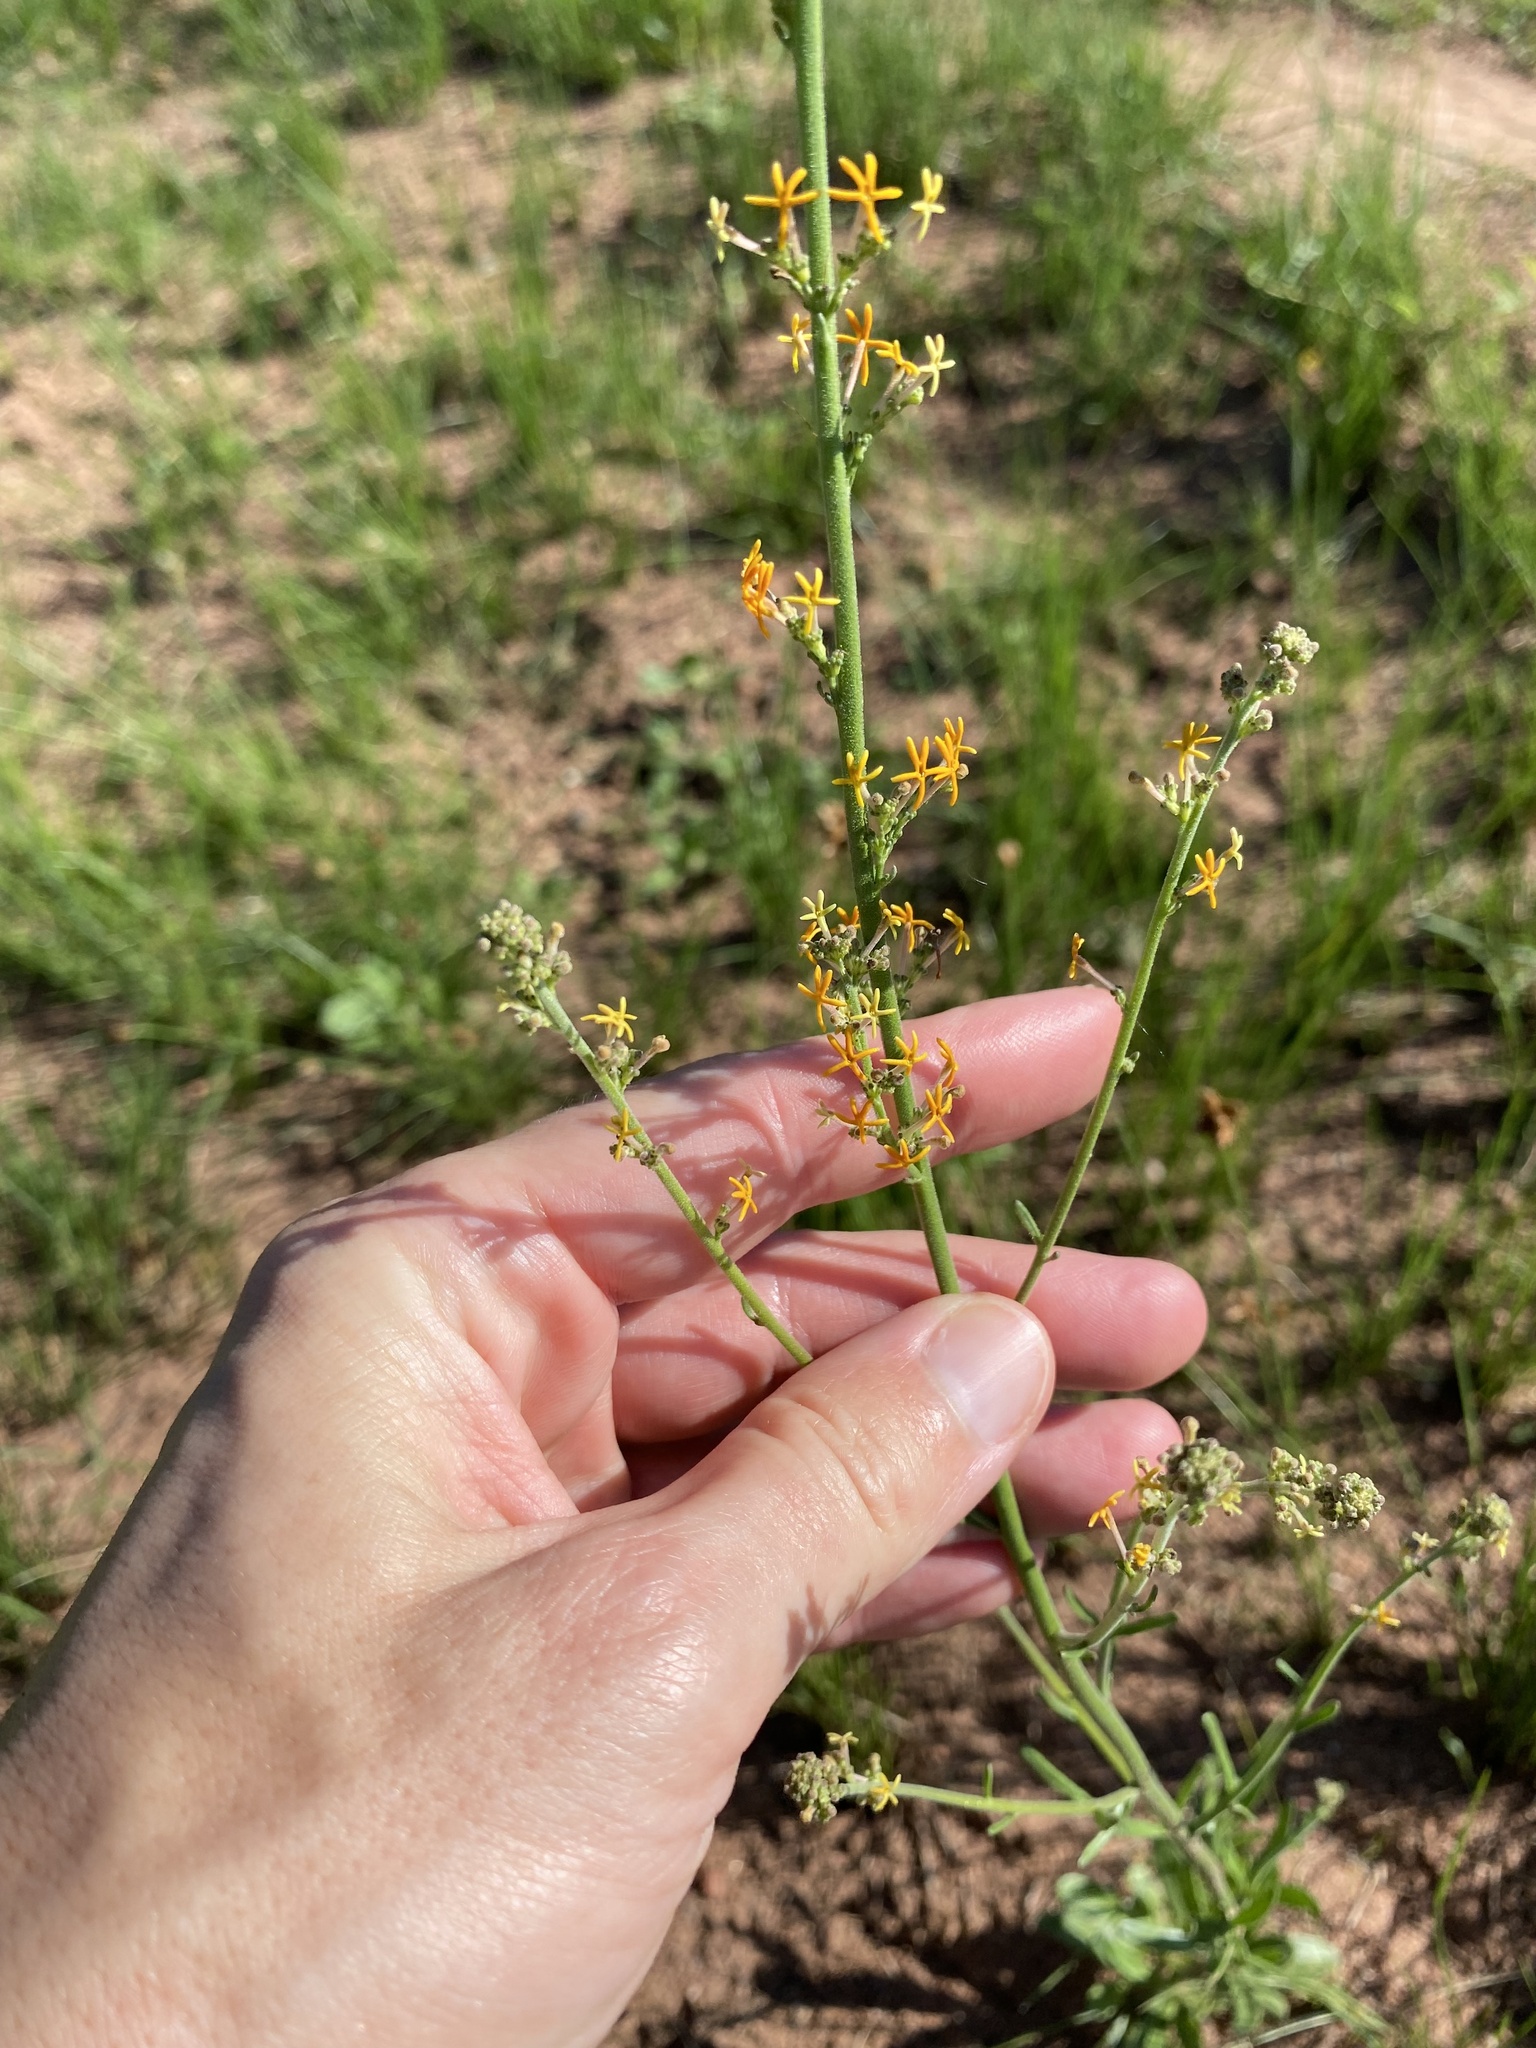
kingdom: Plantae
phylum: Tracheophyta
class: Magnoliopsida
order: Lamiales
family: Scrophulariaceae
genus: Manulea
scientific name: Manulea parviflora
